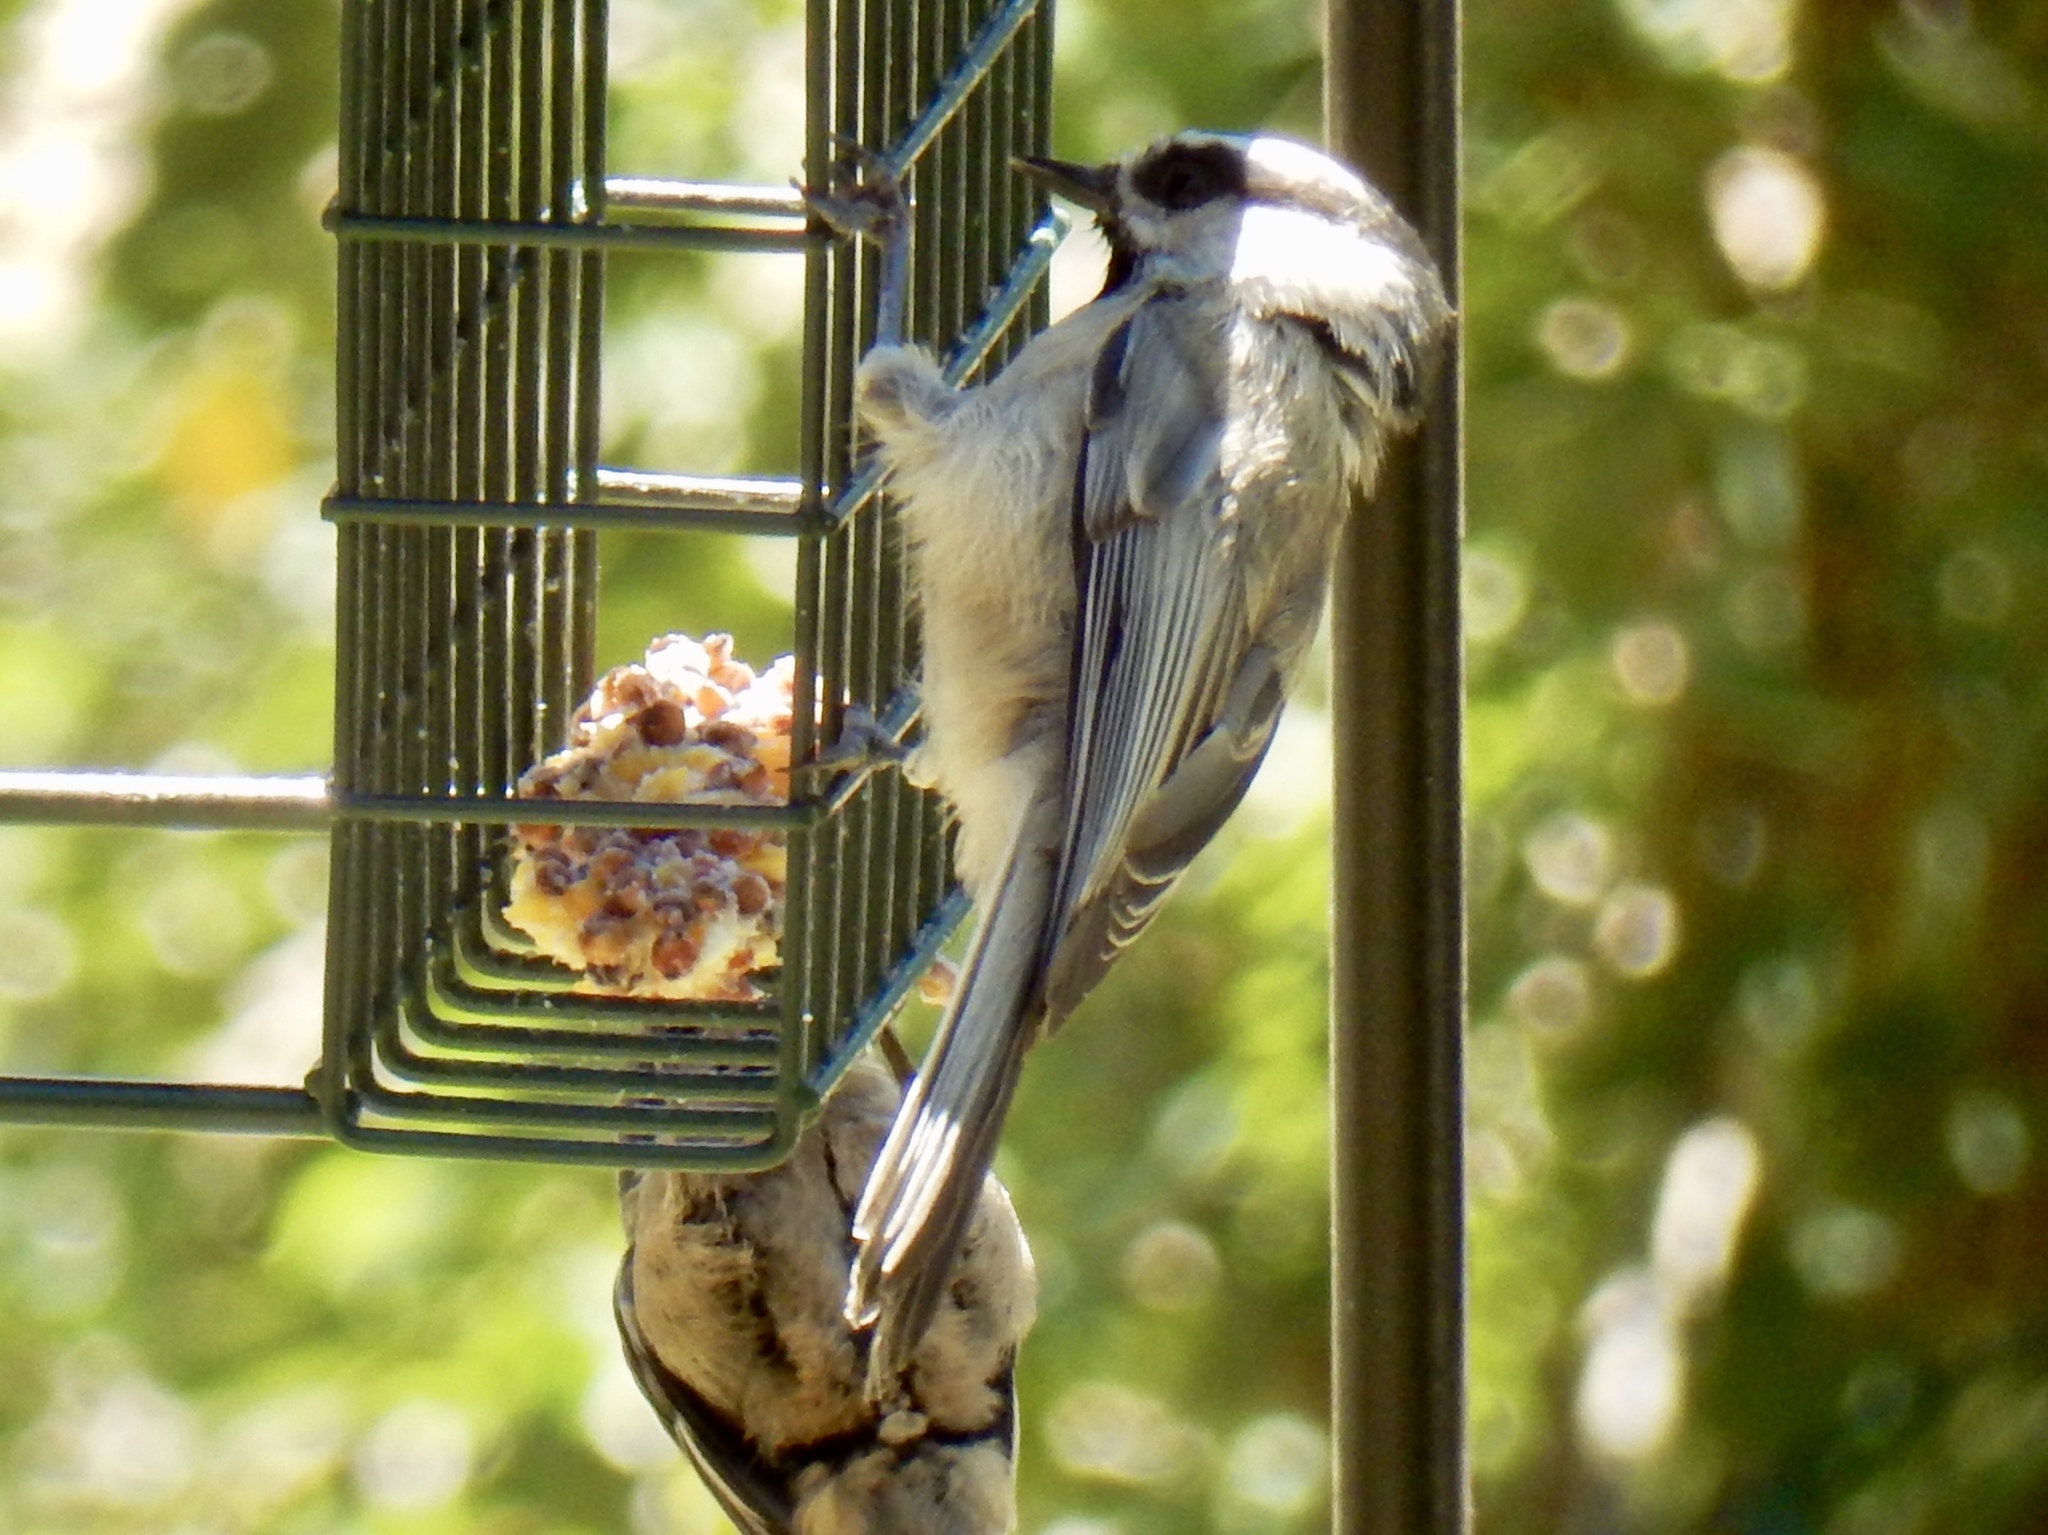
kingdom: Animalia
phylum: Chordata
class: Aves
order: Passeriformes
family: Paridae
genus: Poecile
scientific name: Poecile gambeli
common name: Mountain chickadee
